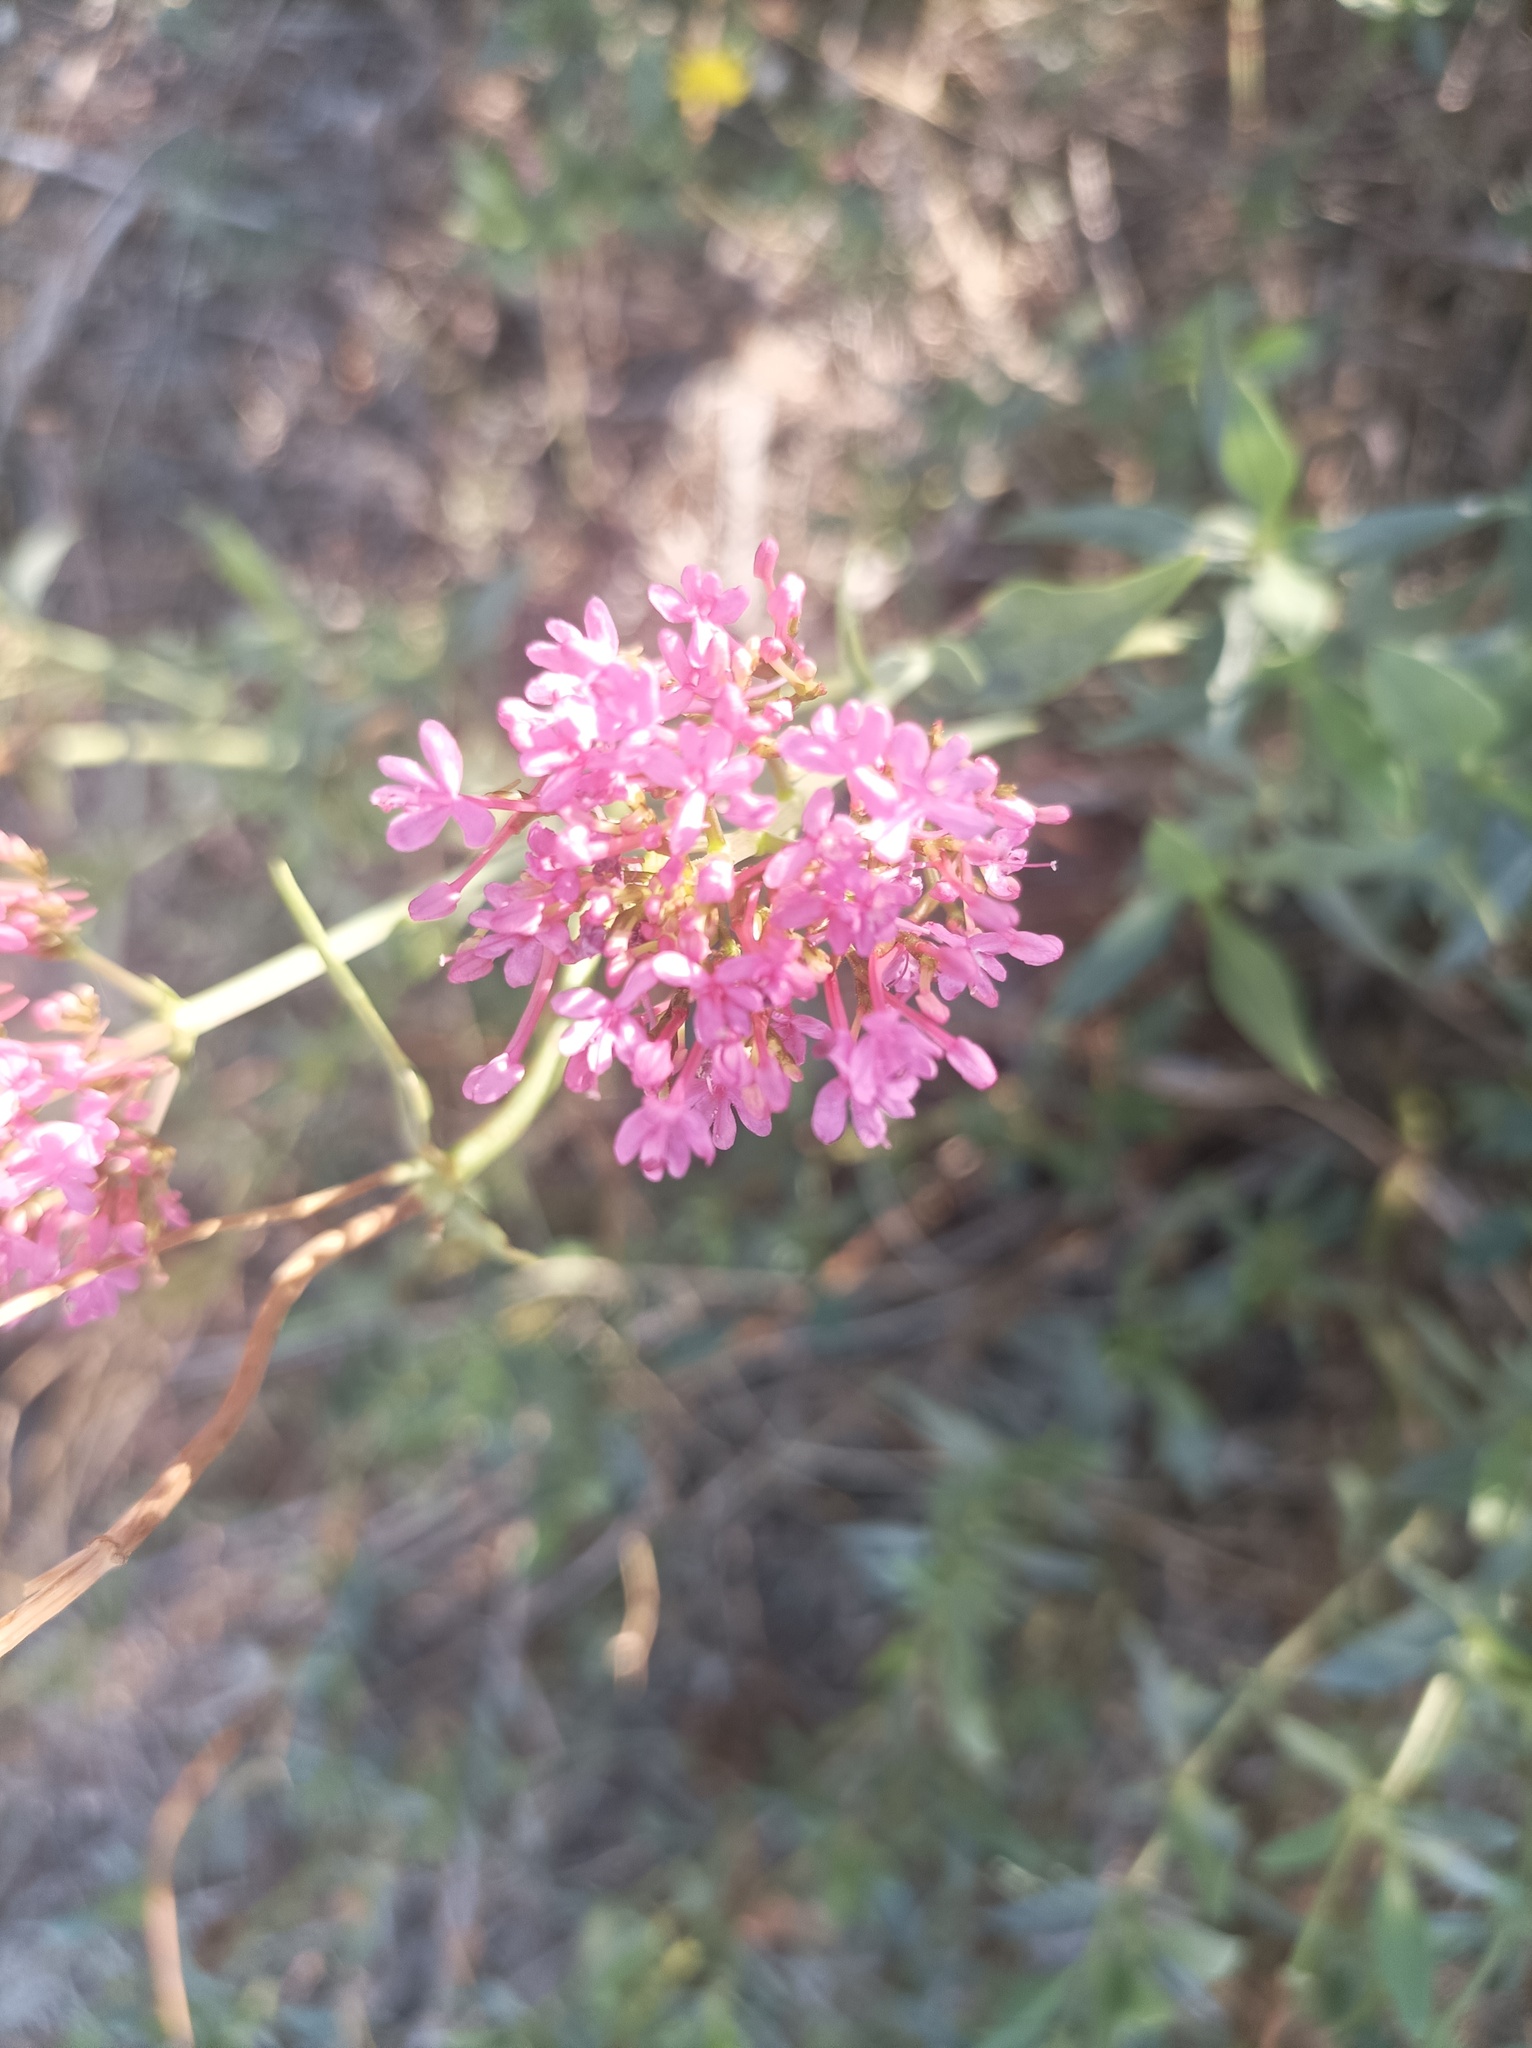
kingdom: Plantae
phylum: Tracheophyta
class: Magnoliopsida
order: Dipsacales
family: Caprifoliaceae
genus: Centranthus
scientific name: Centranthus ruber
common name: Red valerian
